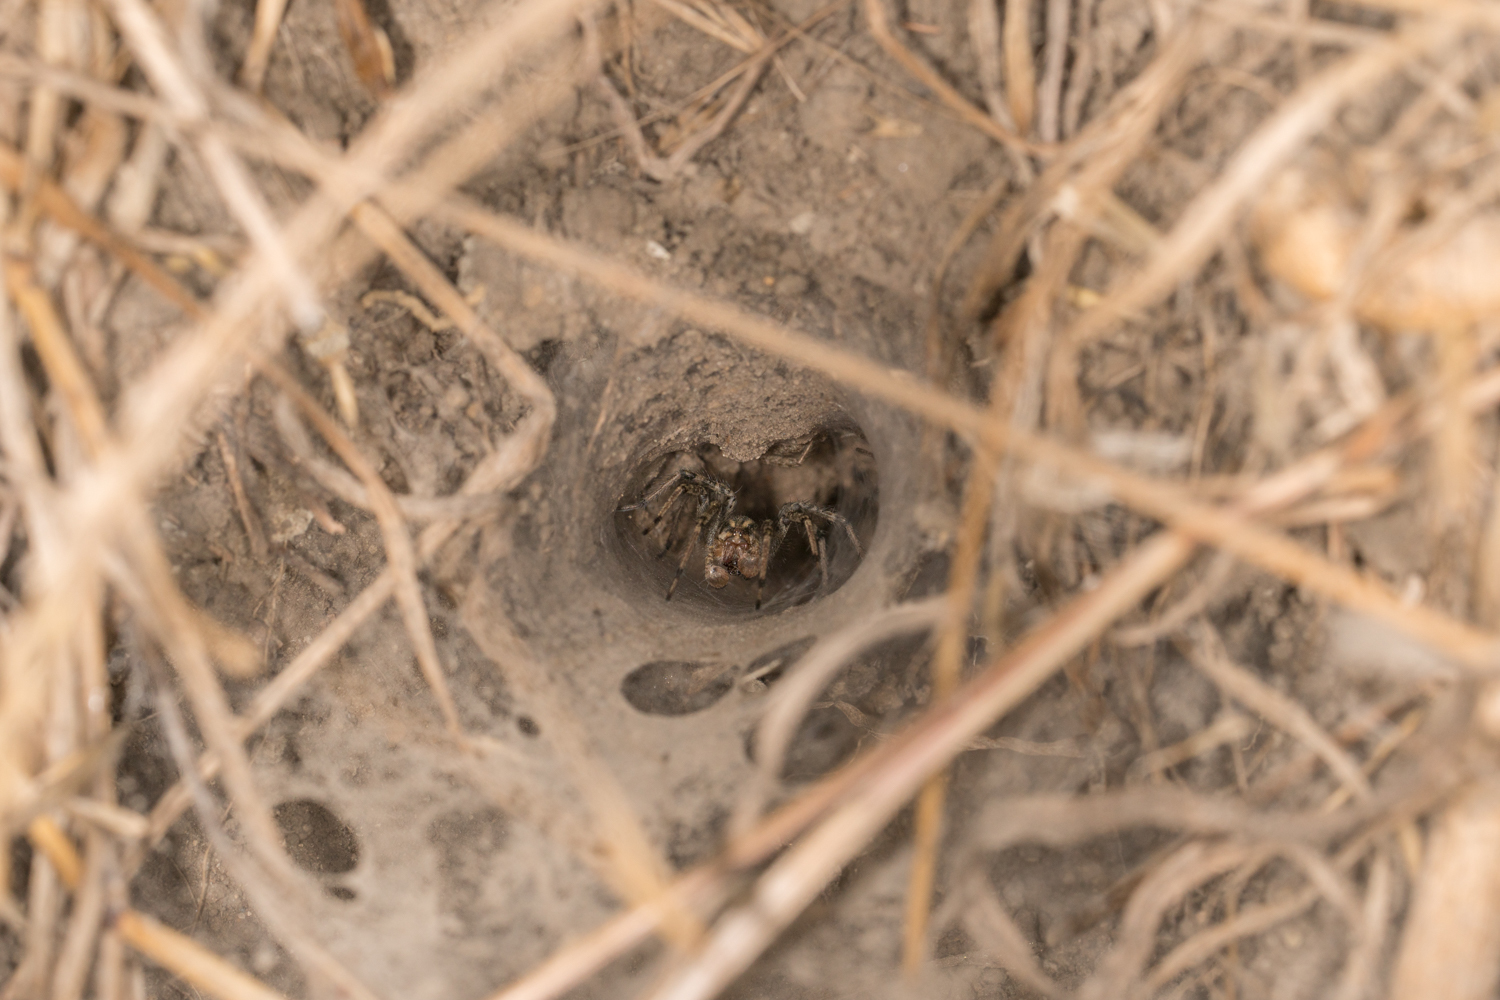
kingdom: Animalia
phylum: Arthropoda
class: Arachnida
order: Araneae
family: Agelenidae
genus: Agelenopsis
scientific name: Agelenopsis aperta
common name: Desert grass spider
